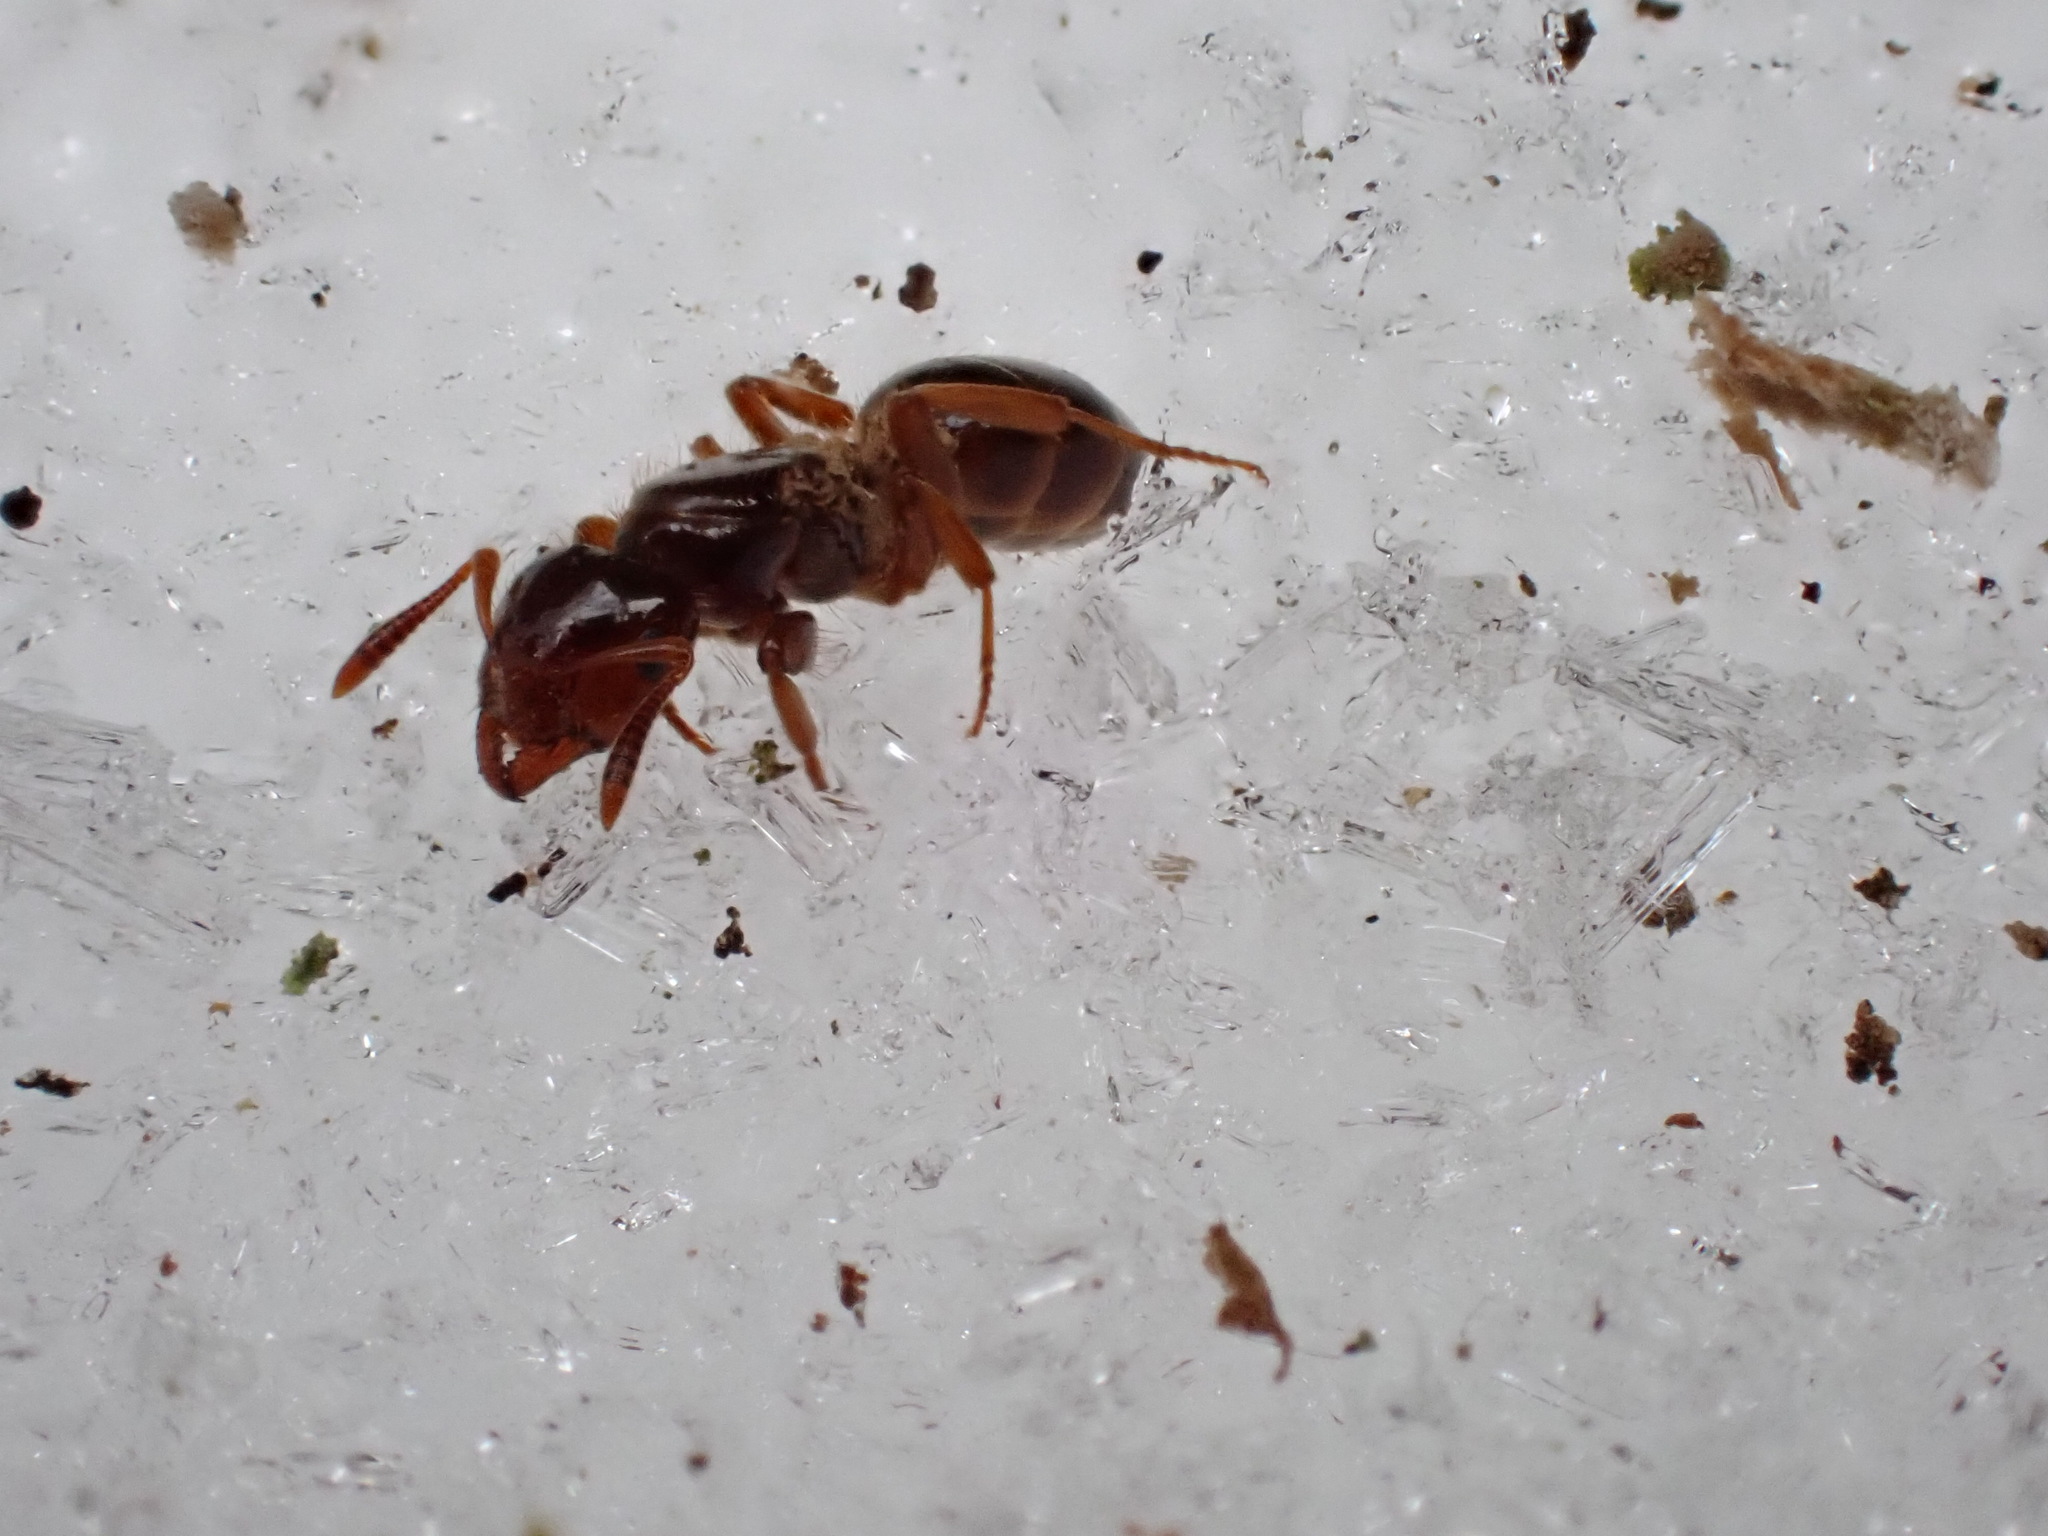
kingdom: Animalia
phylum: Arthropoda
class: Insecta
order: Hymenoptera
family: Formicidae
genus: Lasius
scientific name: Lasius claviger
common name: Common citronella ant
